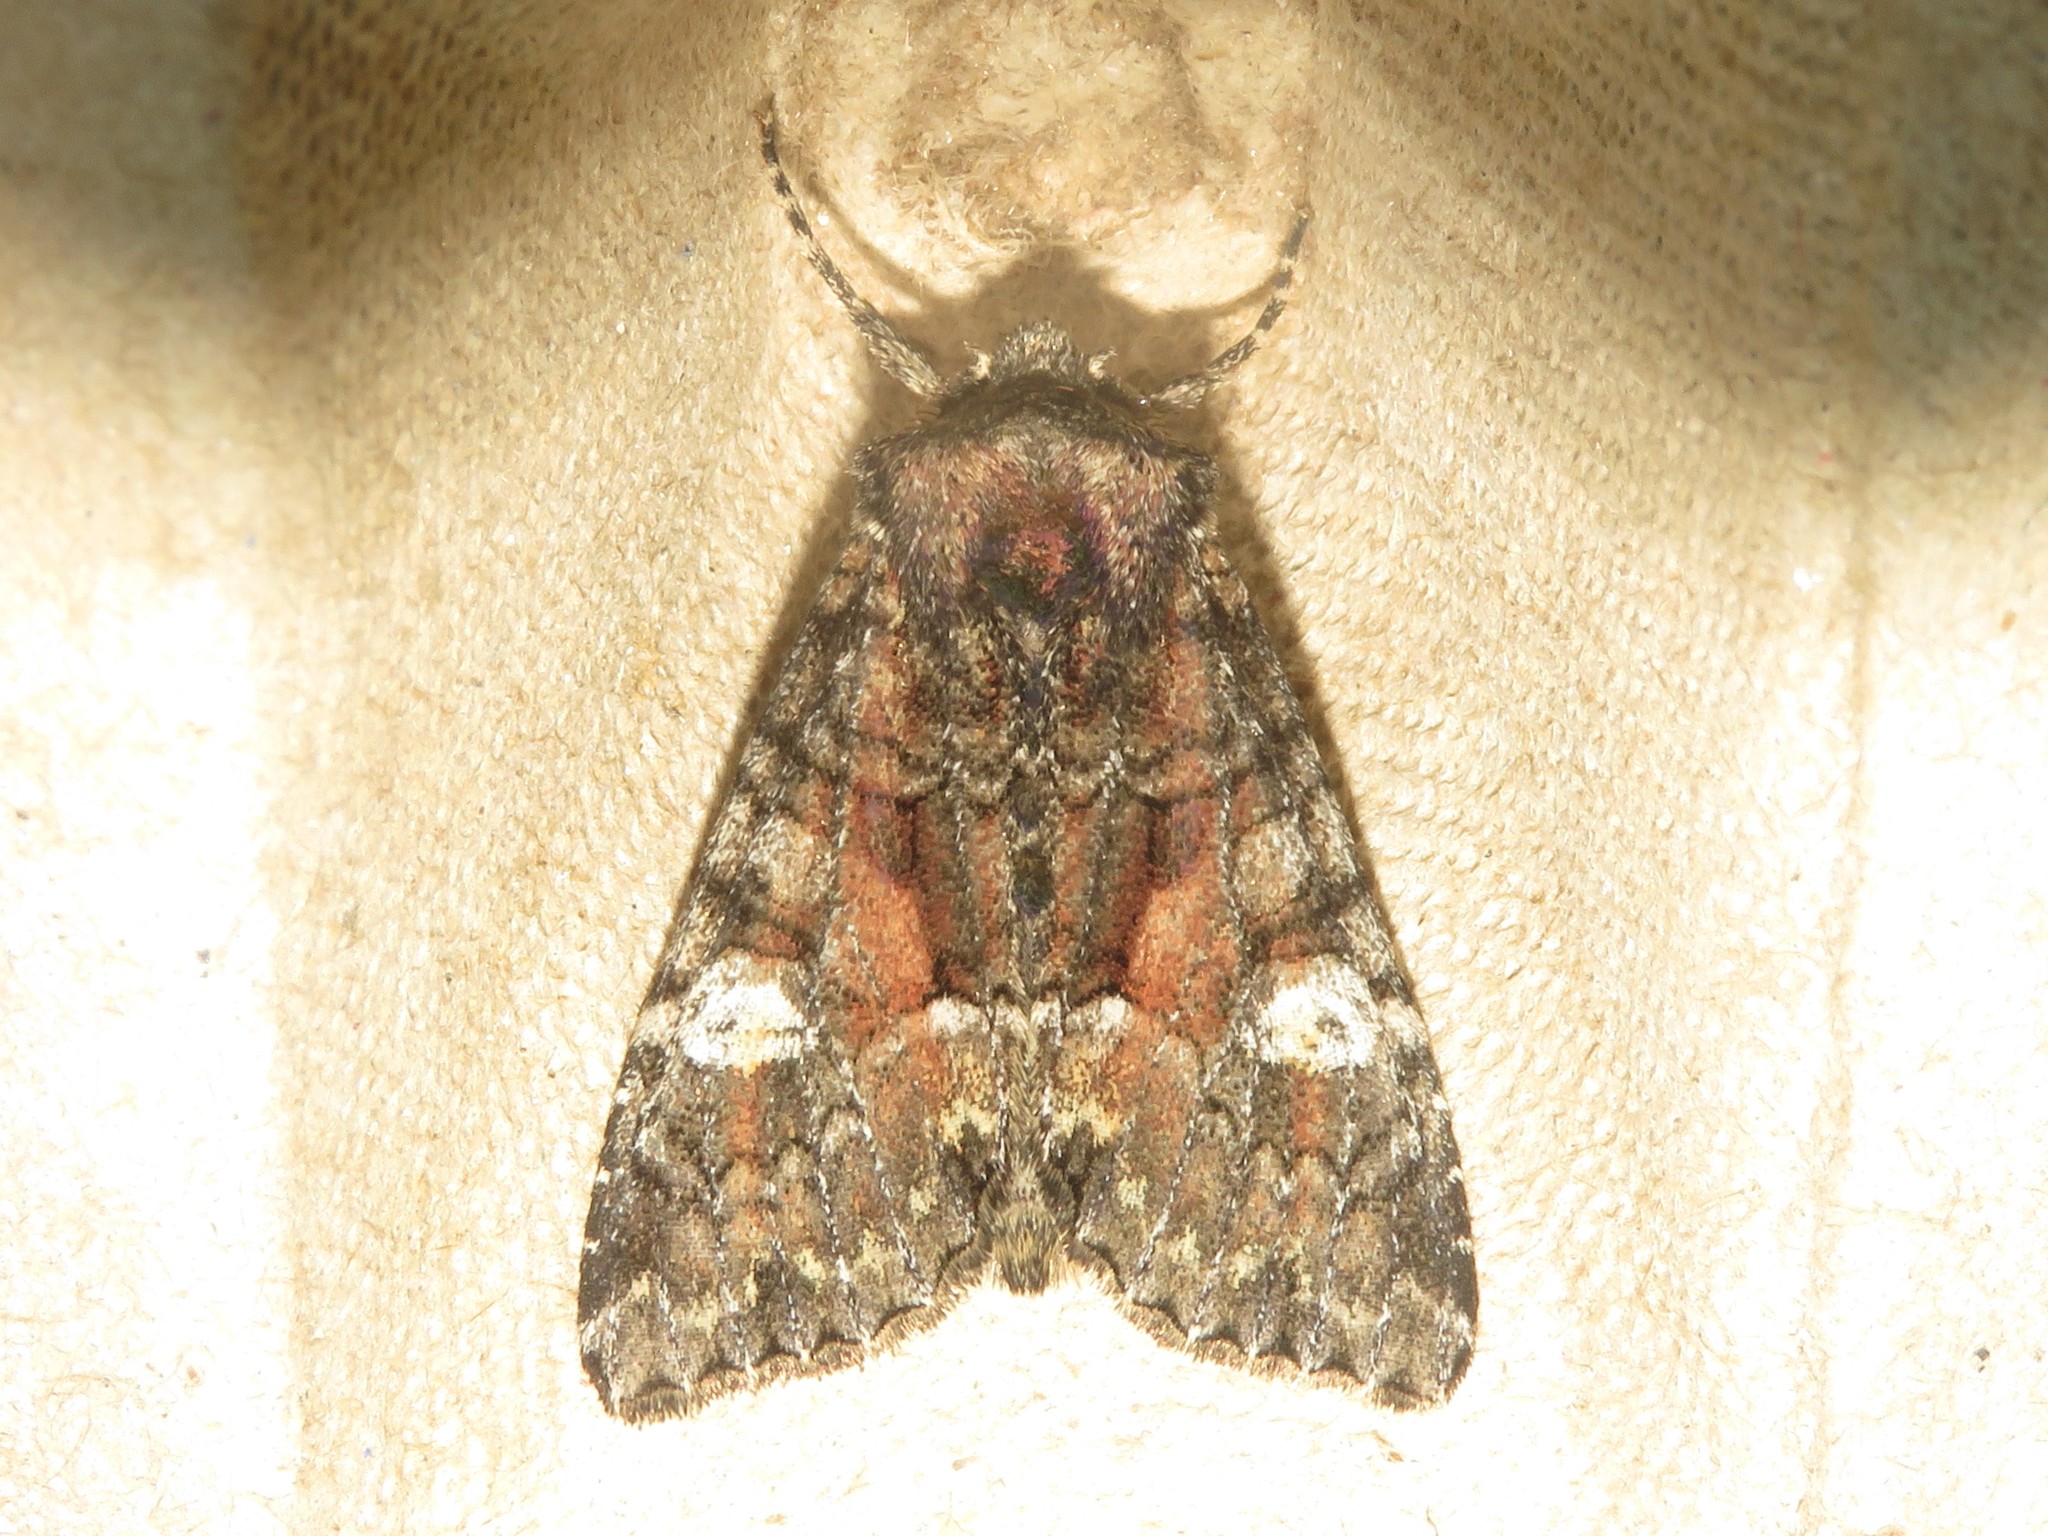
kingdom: Animalia
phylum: Arthropoda
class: Insecta
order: Lepidoptera
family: Noctuidae
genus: Fishia
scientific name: Fishia illocata
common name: Wandering brocade moth
